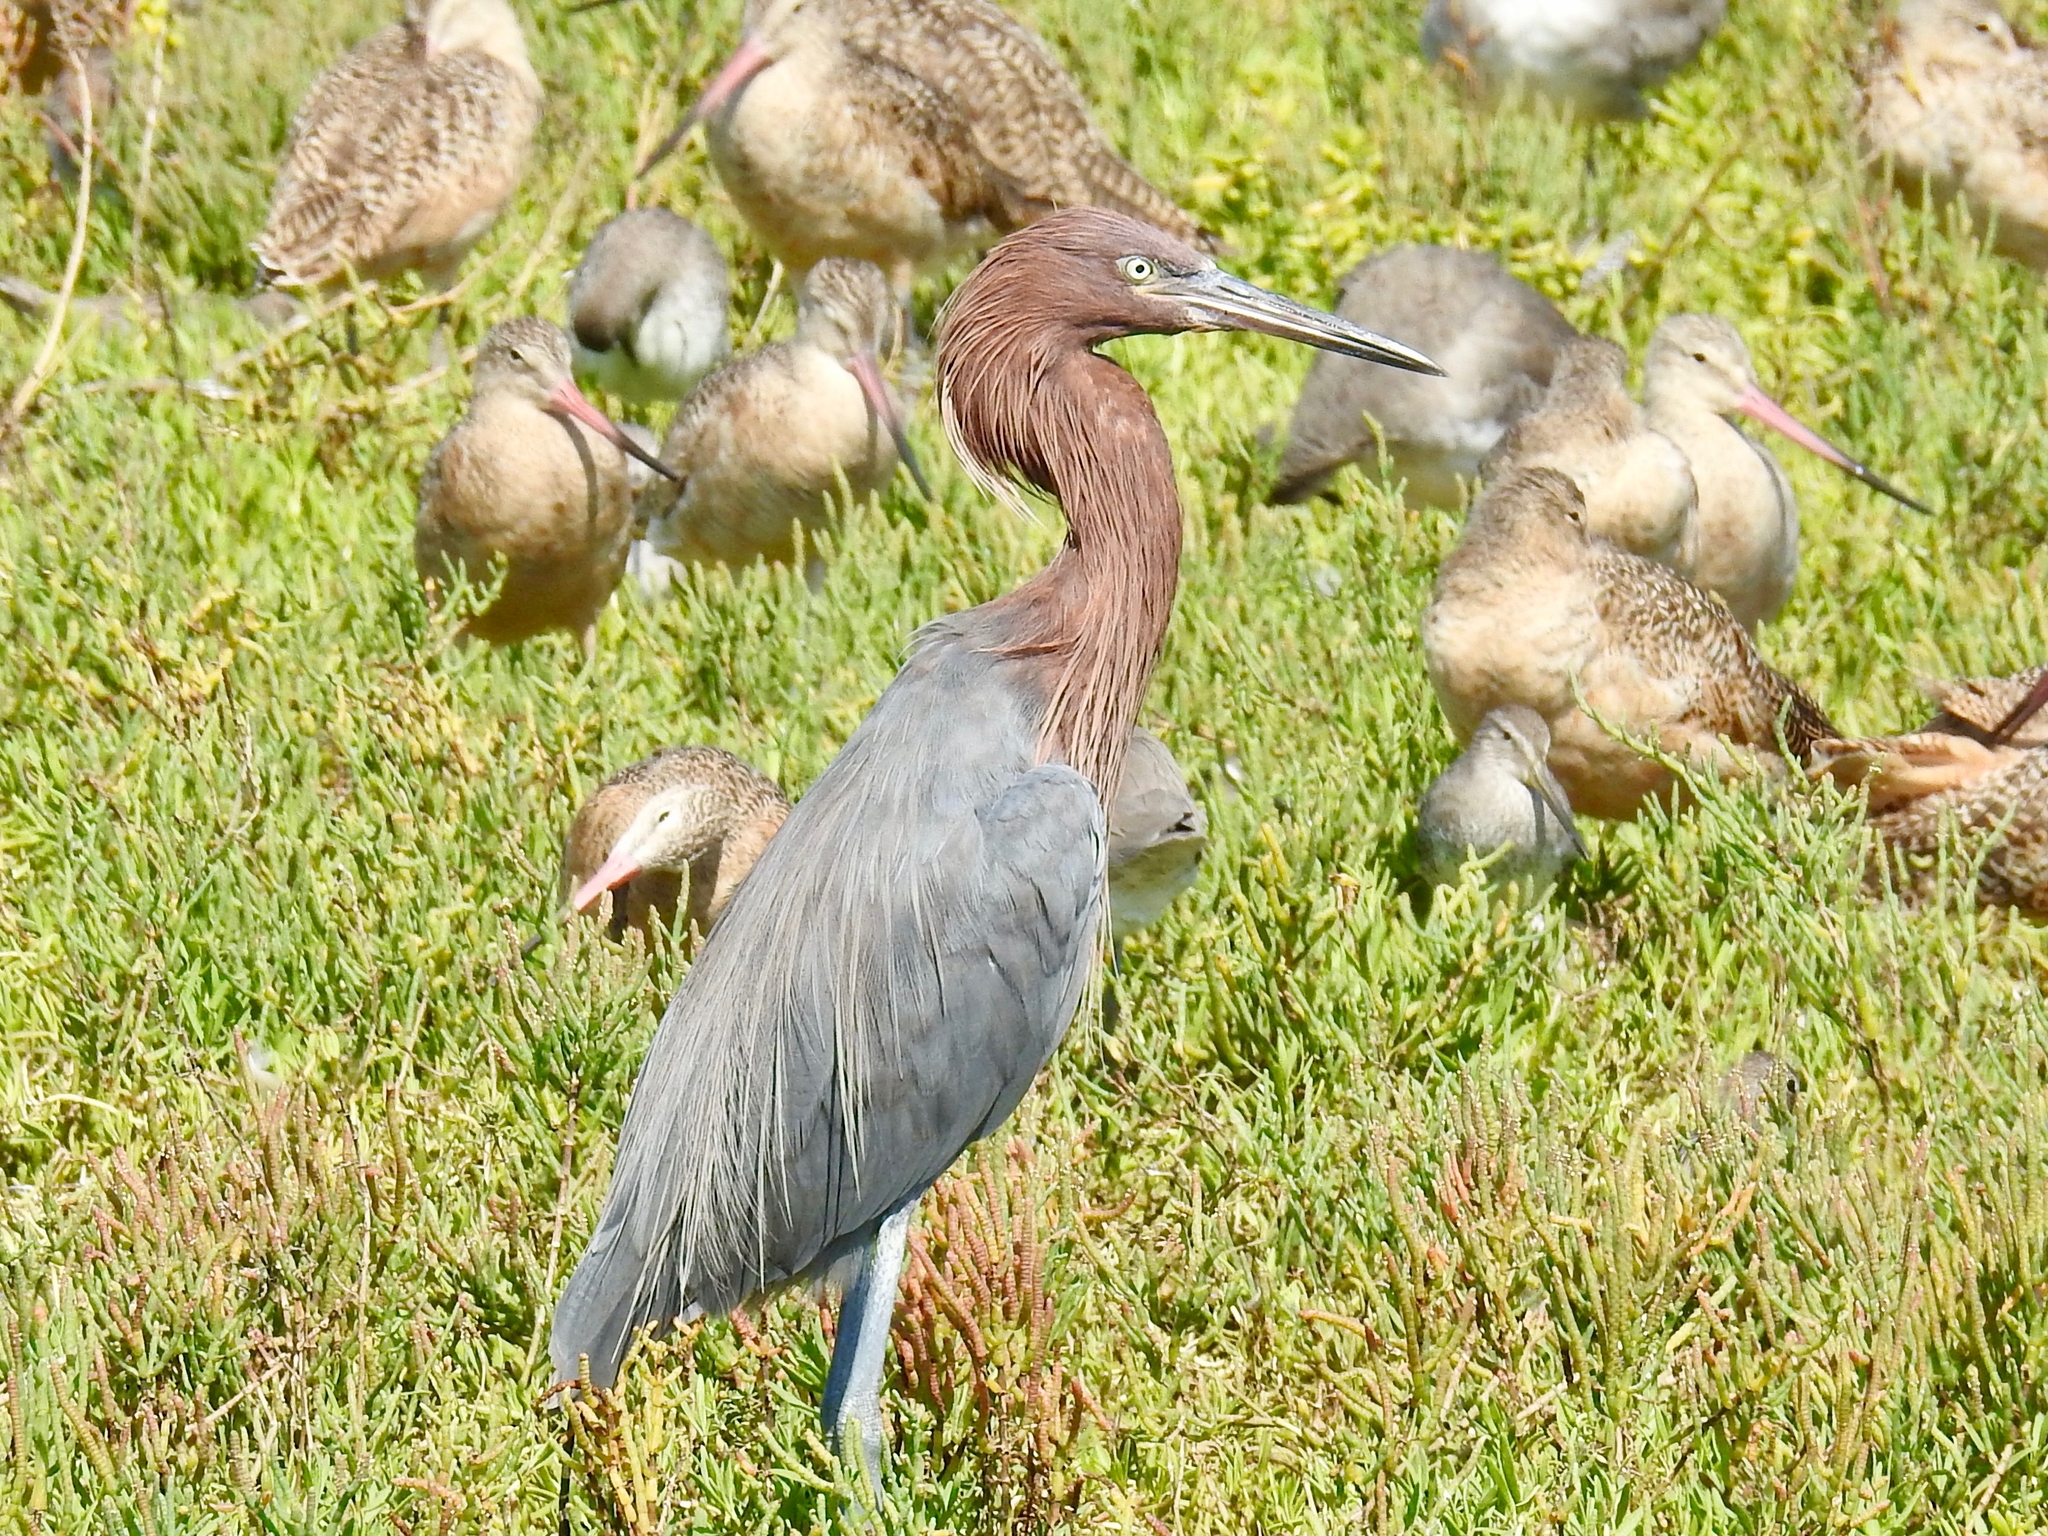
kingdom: Animalia
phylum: Chordata
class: Aves
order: Pelecaniformes
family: Ardeidae
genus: Egretta
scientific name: Egretta rufescens
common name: Reddish egret
